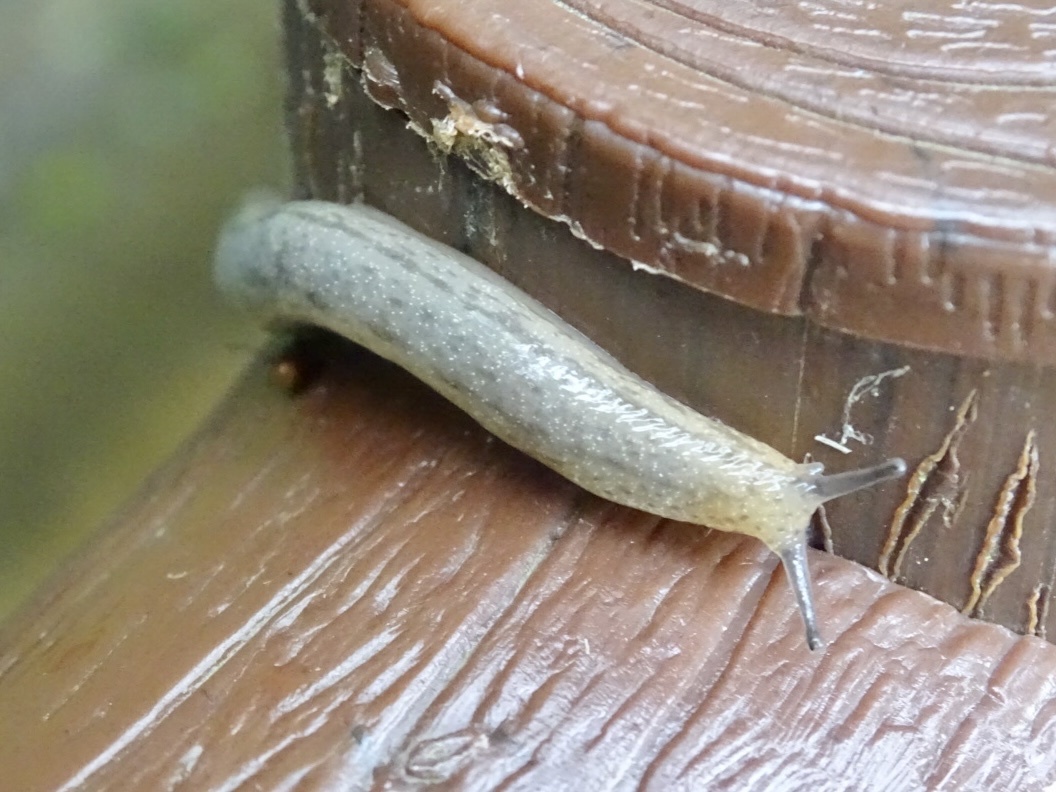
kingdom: Animalia
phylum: Mollusca
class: Gastropoda
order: Stylommatophora
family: Philomycidae
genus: Meghimatium
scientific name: Meghimatium bilineatum
